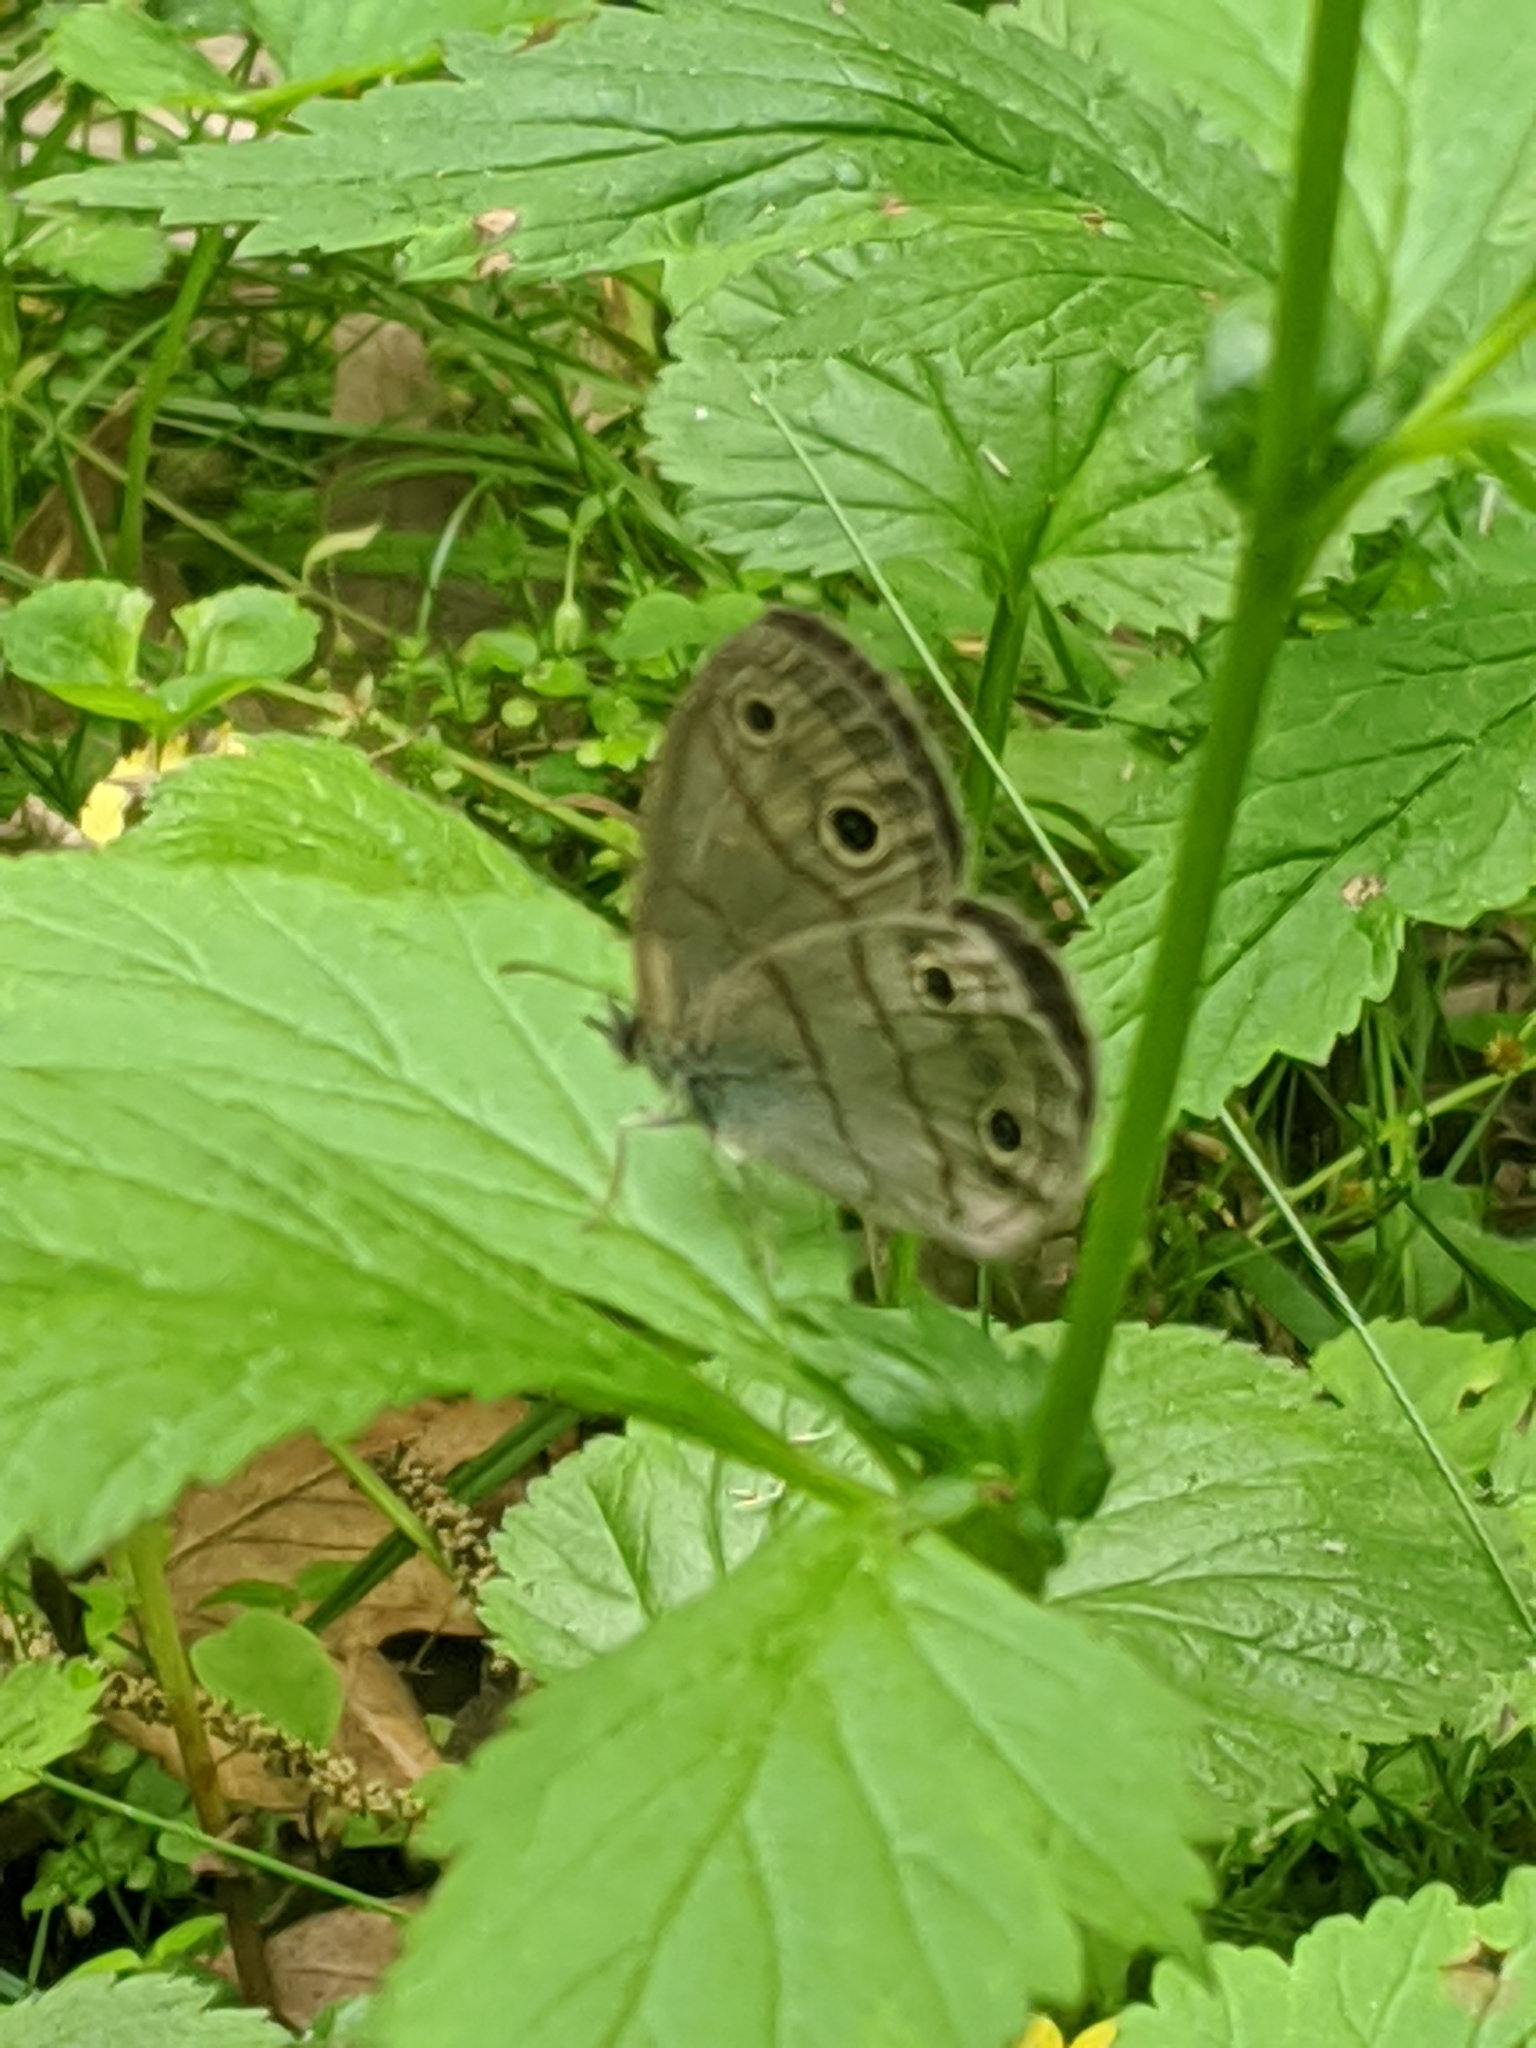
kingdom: Animalia
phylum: Arthropoda
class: Insecta
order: Lepidoptera
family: Nymphalidae
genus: Euptychia
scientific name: Euptychia cymela
